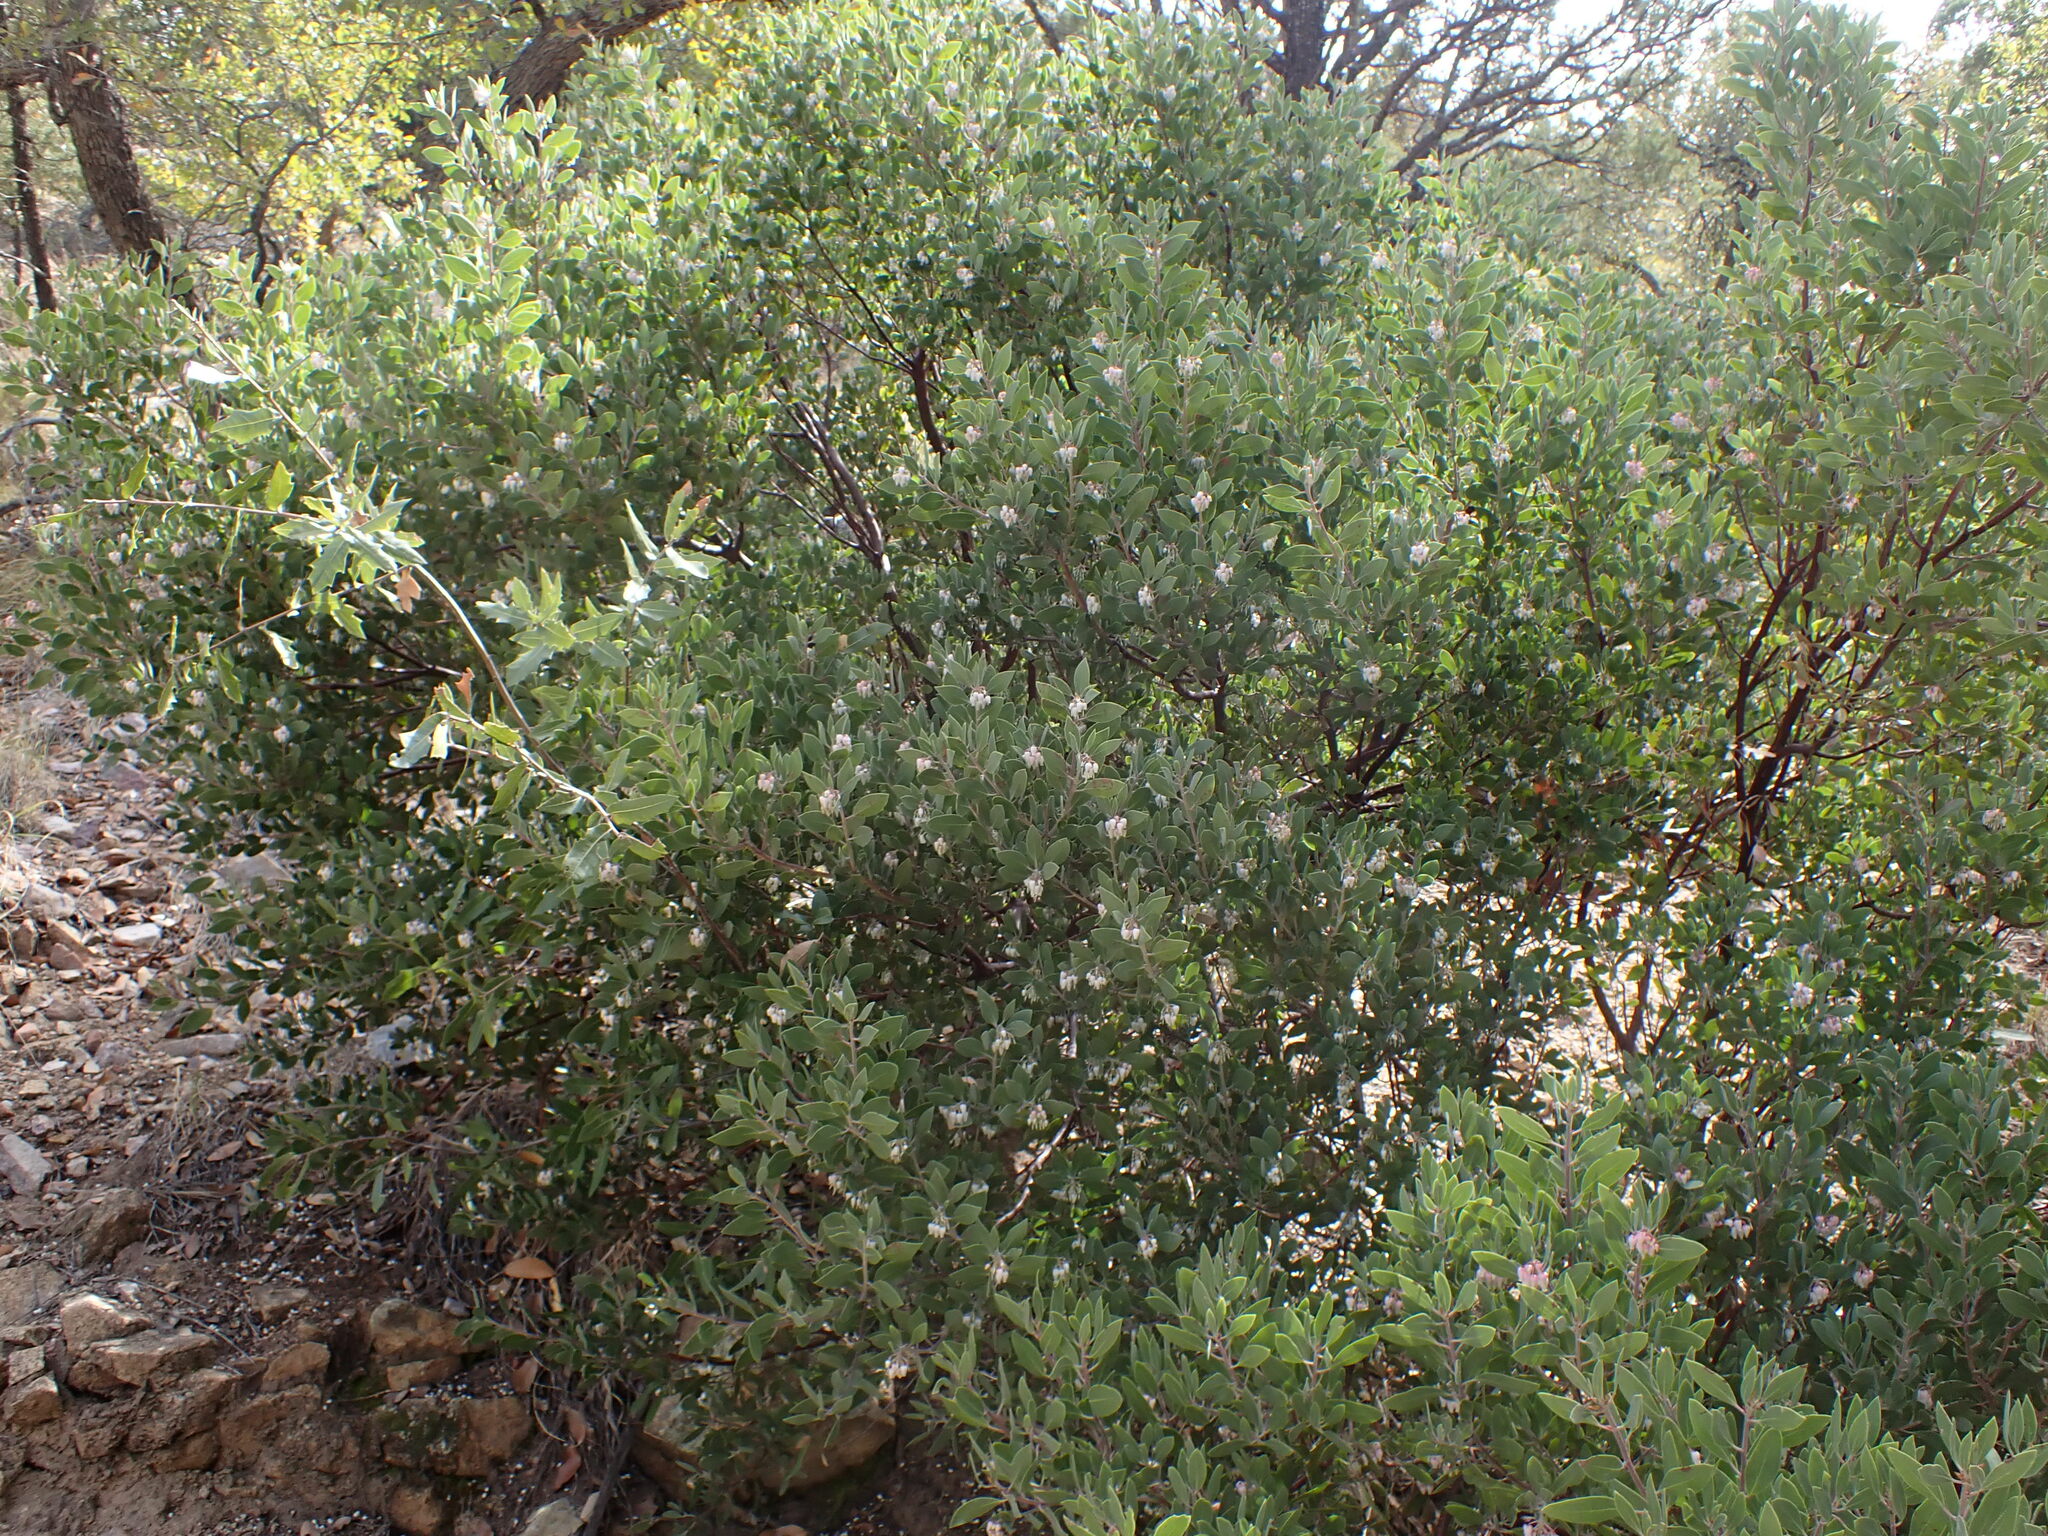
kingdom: Plantae
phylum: Tracheophyta
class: Magnoliopsida
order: Ericales
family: Ericaceae
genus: Arctostaphylos
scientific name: Arctostaphylos pungens
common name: Mexican manzanita
